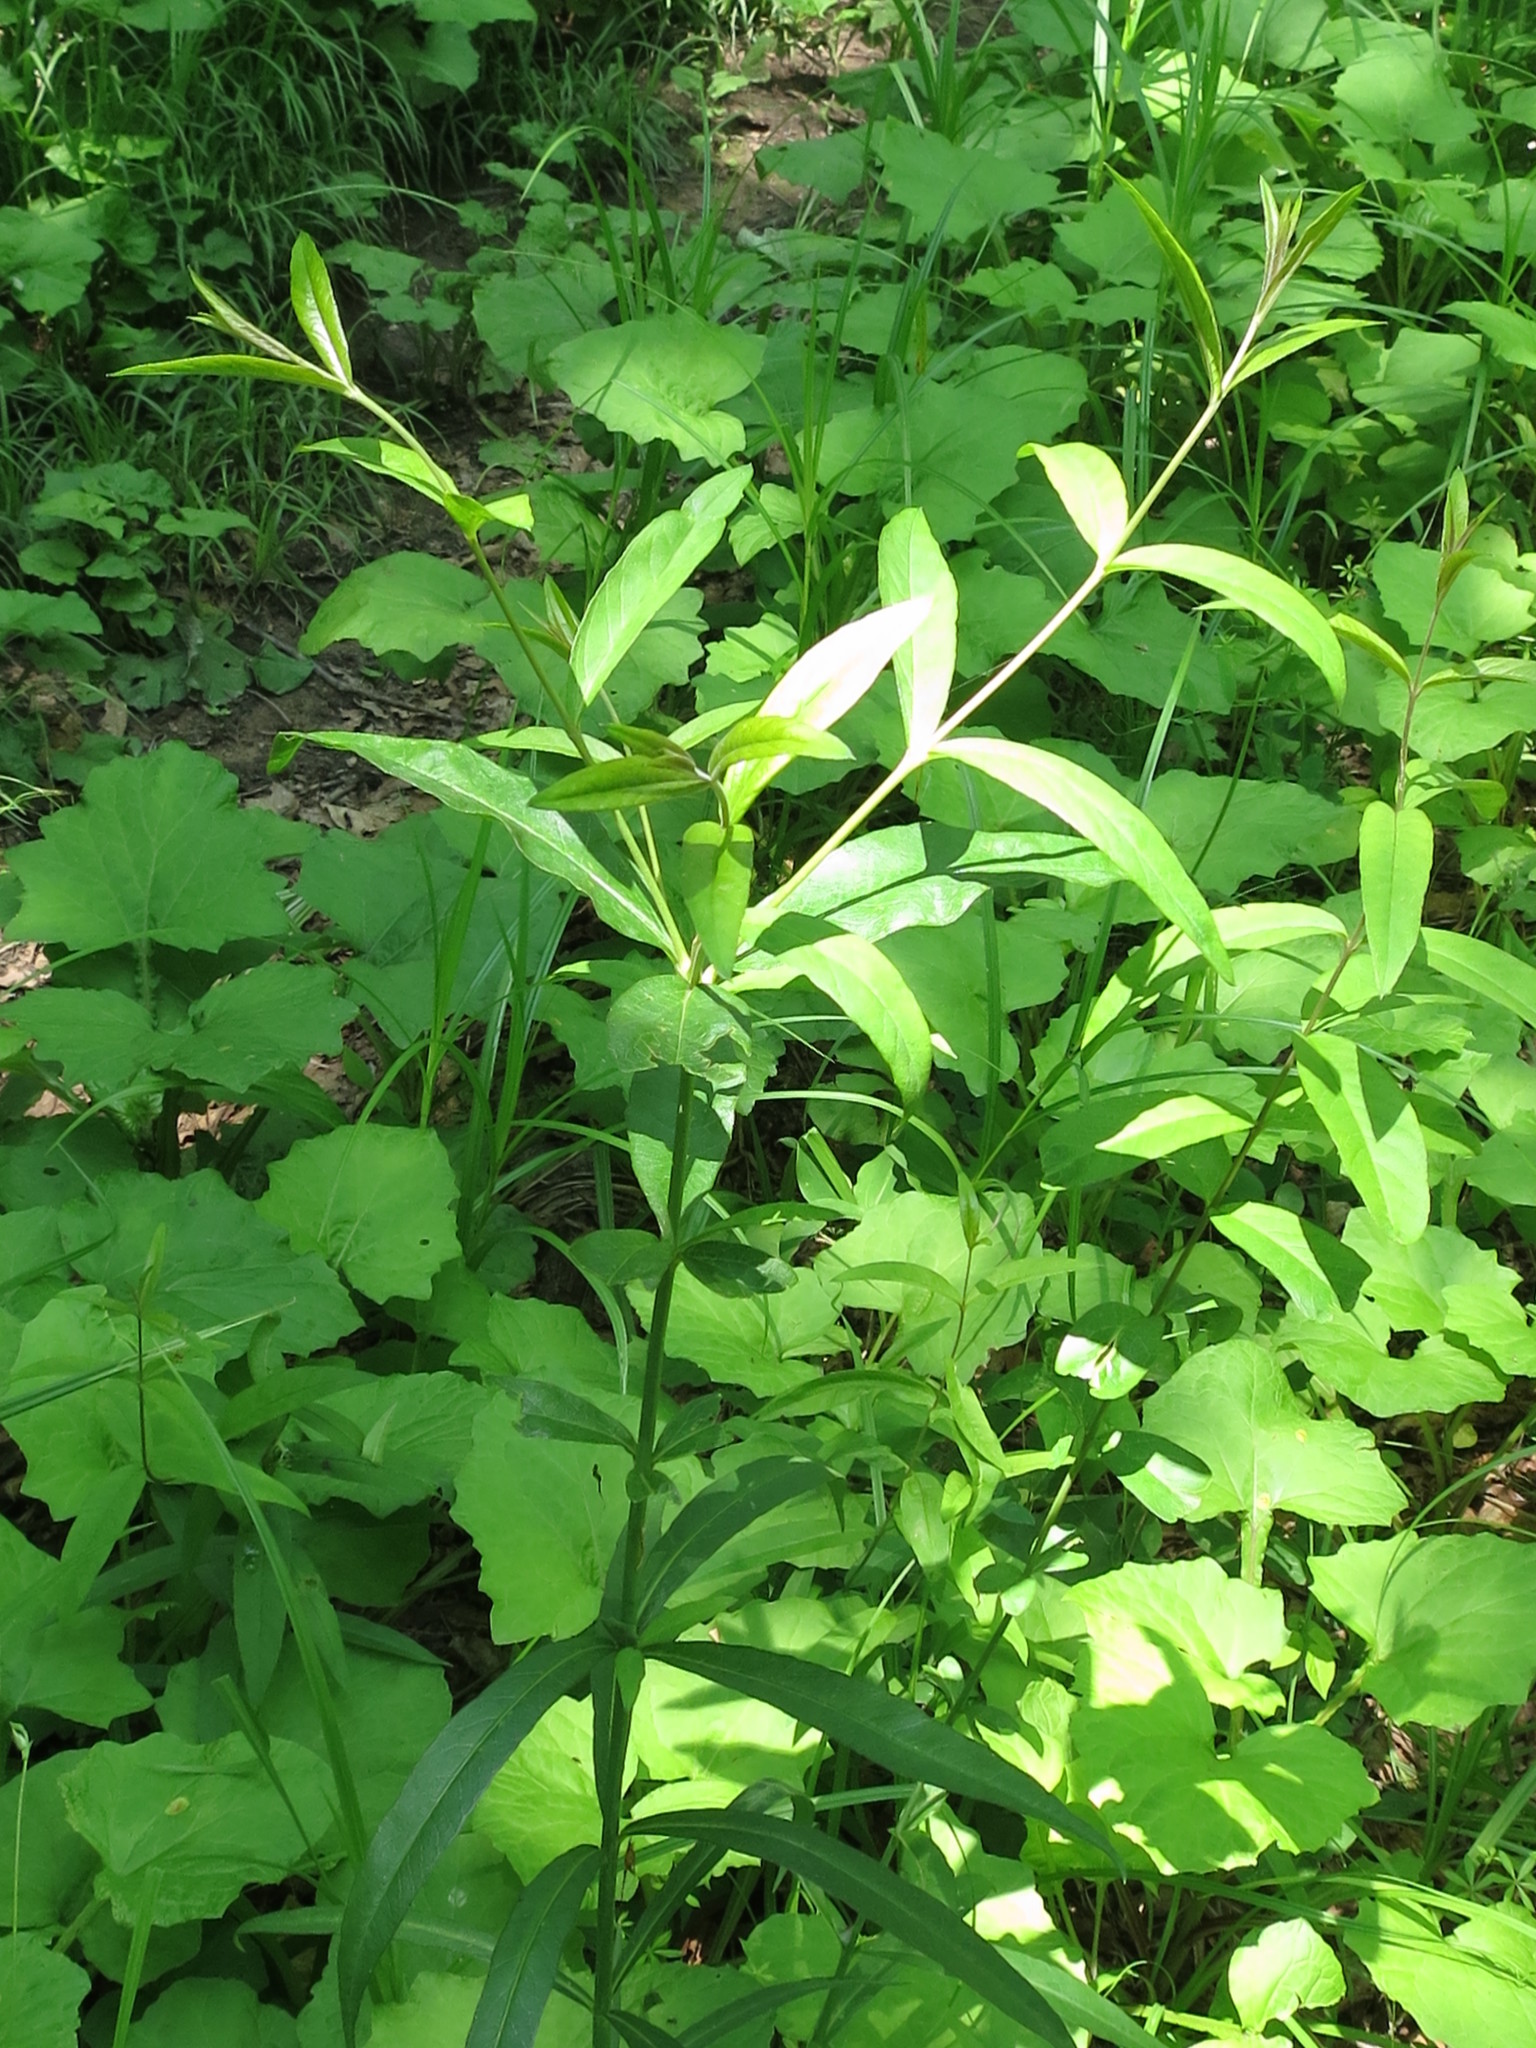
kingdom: Plantae
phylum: Tracheophyta
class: Magnoliopsida
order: Ericales
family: Primulaceae
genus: Lysimachia
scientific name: Lysimachia davurica
